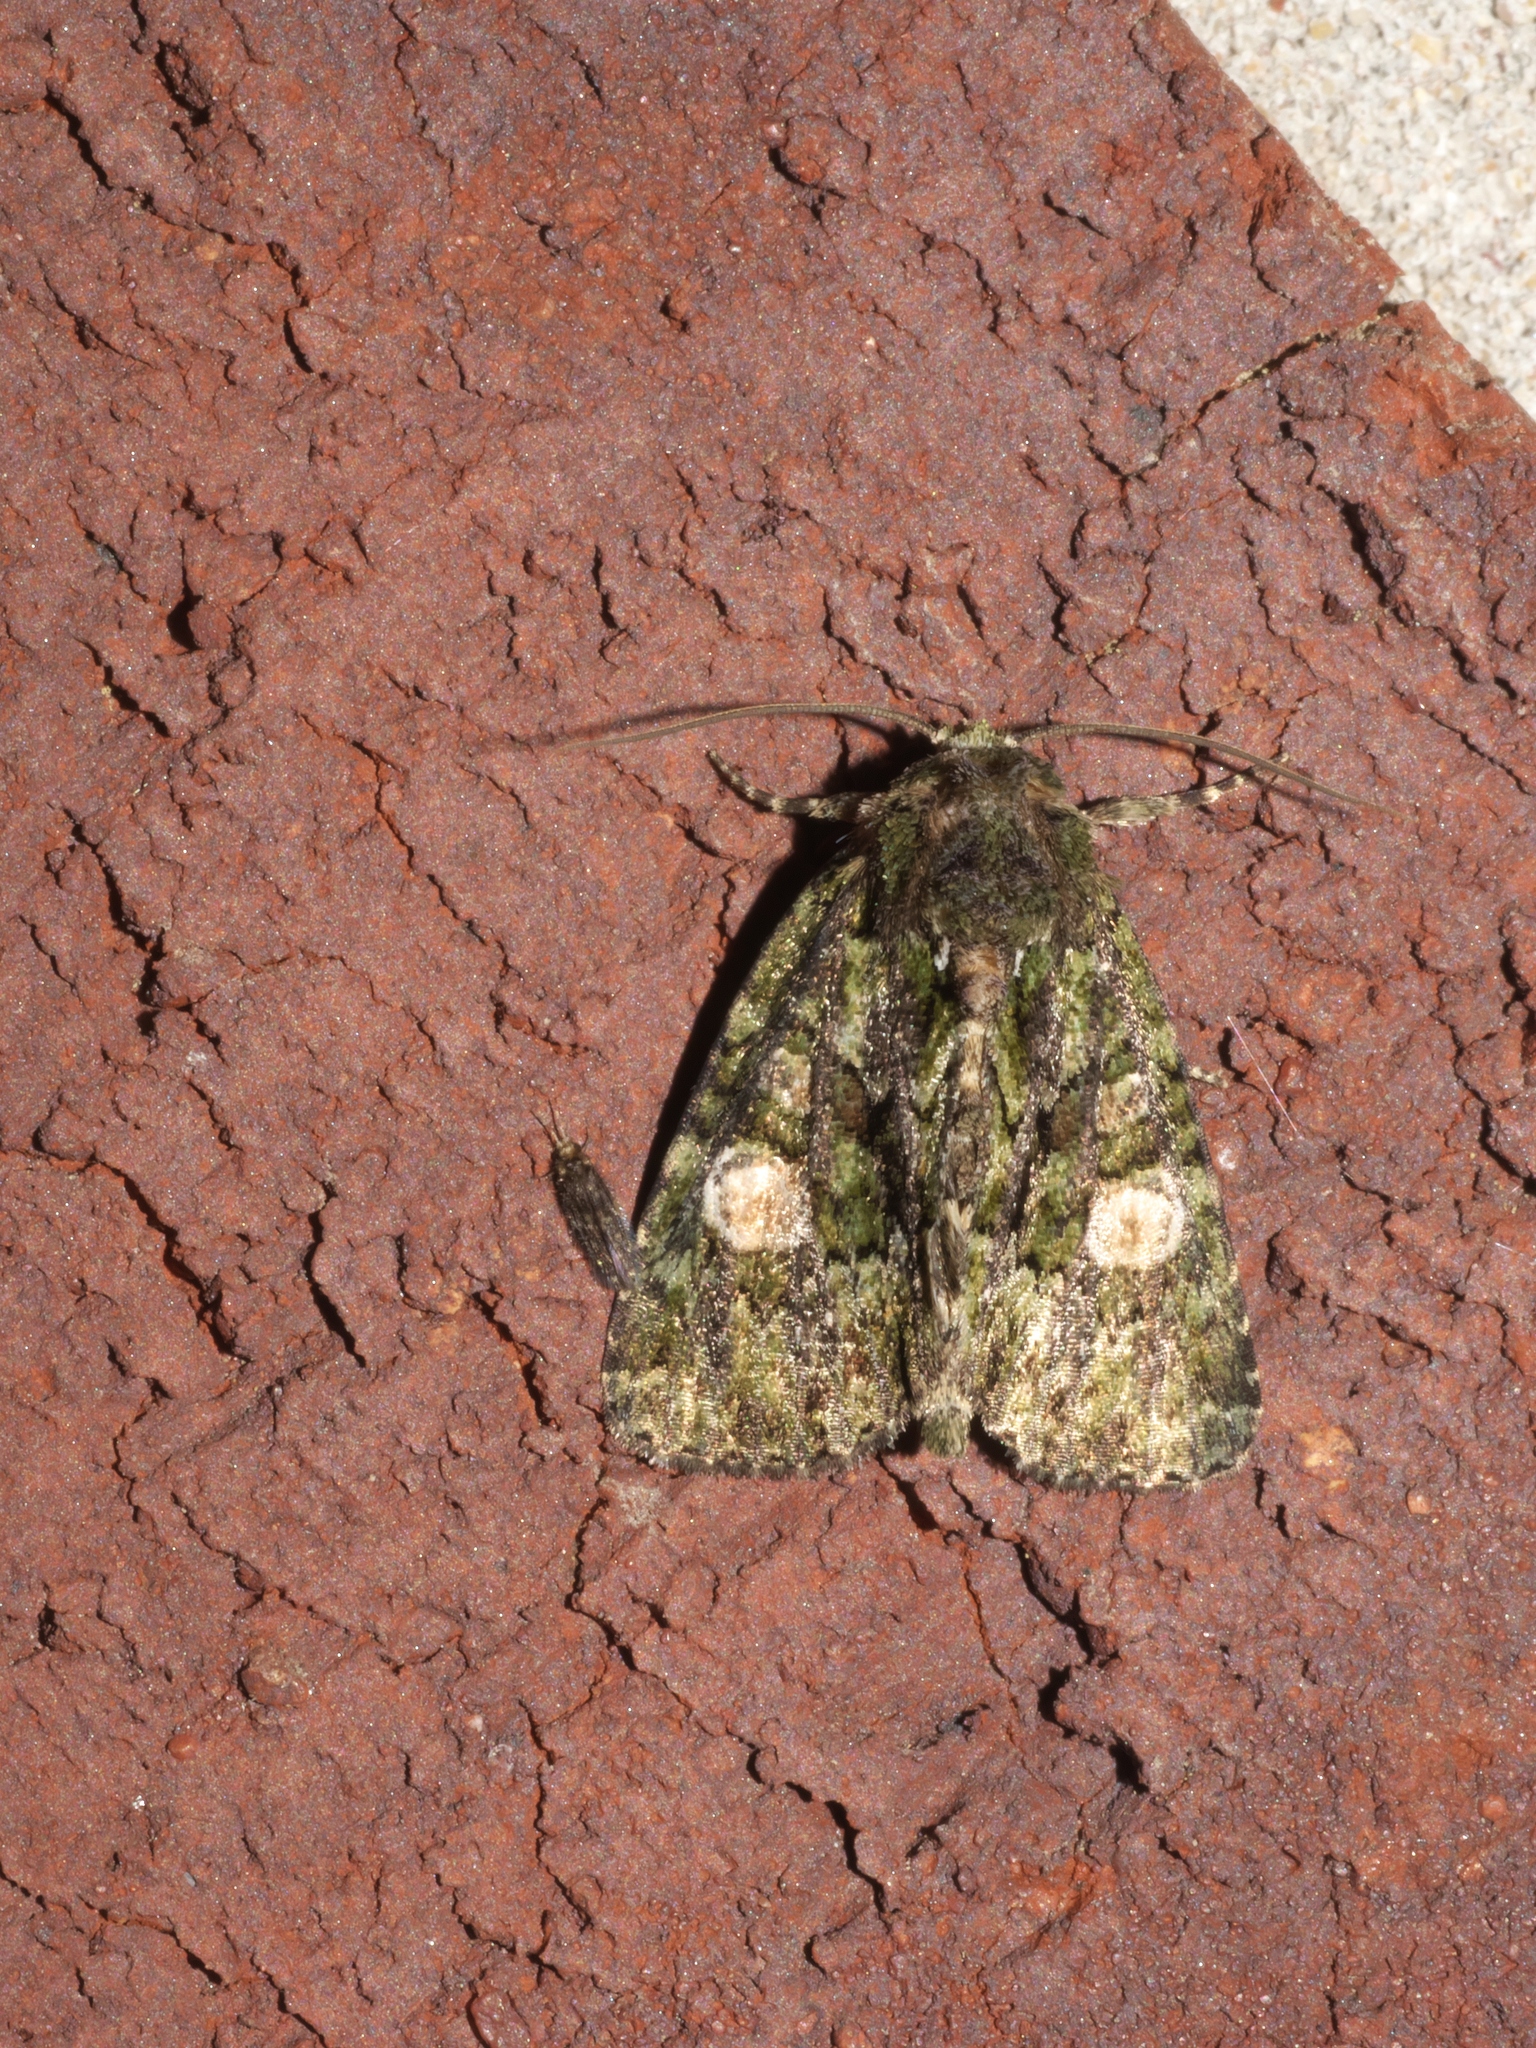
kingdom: Animalia
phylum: Arthropoda
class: Insecta
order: Lepidoptera
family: Noctuidae
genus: Phosphila
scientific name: Phosphila miselioides
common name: Spotted phosphila moth
